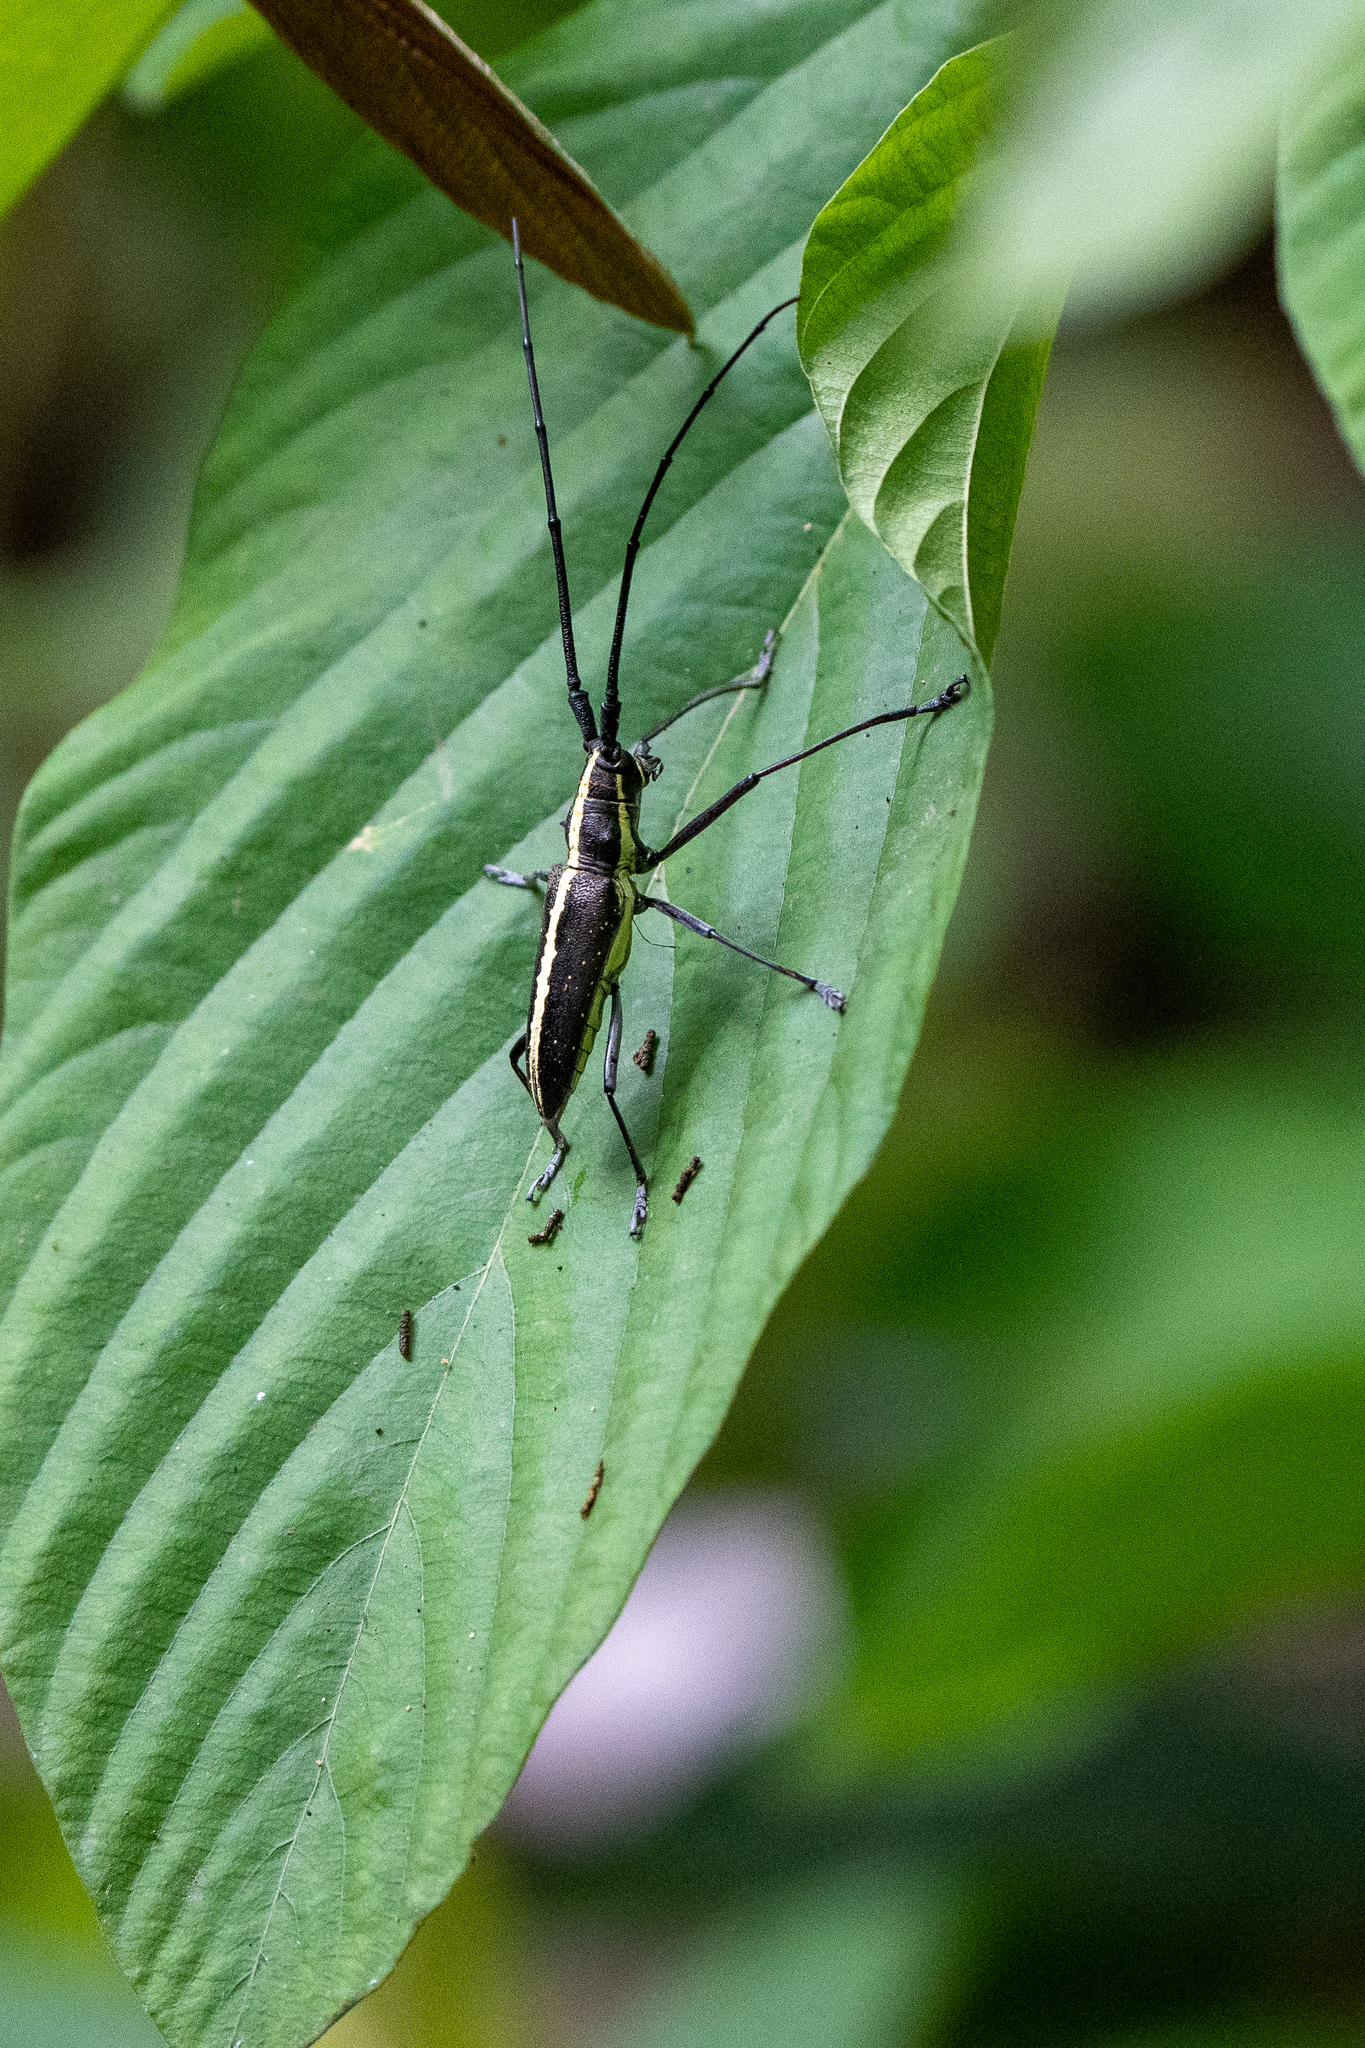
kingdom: Animalia
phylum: Arthropoda
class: Insecta
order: Coleoptera
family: Cerambycidae
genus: Taeniotes
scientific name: Taeniotes scalatus
